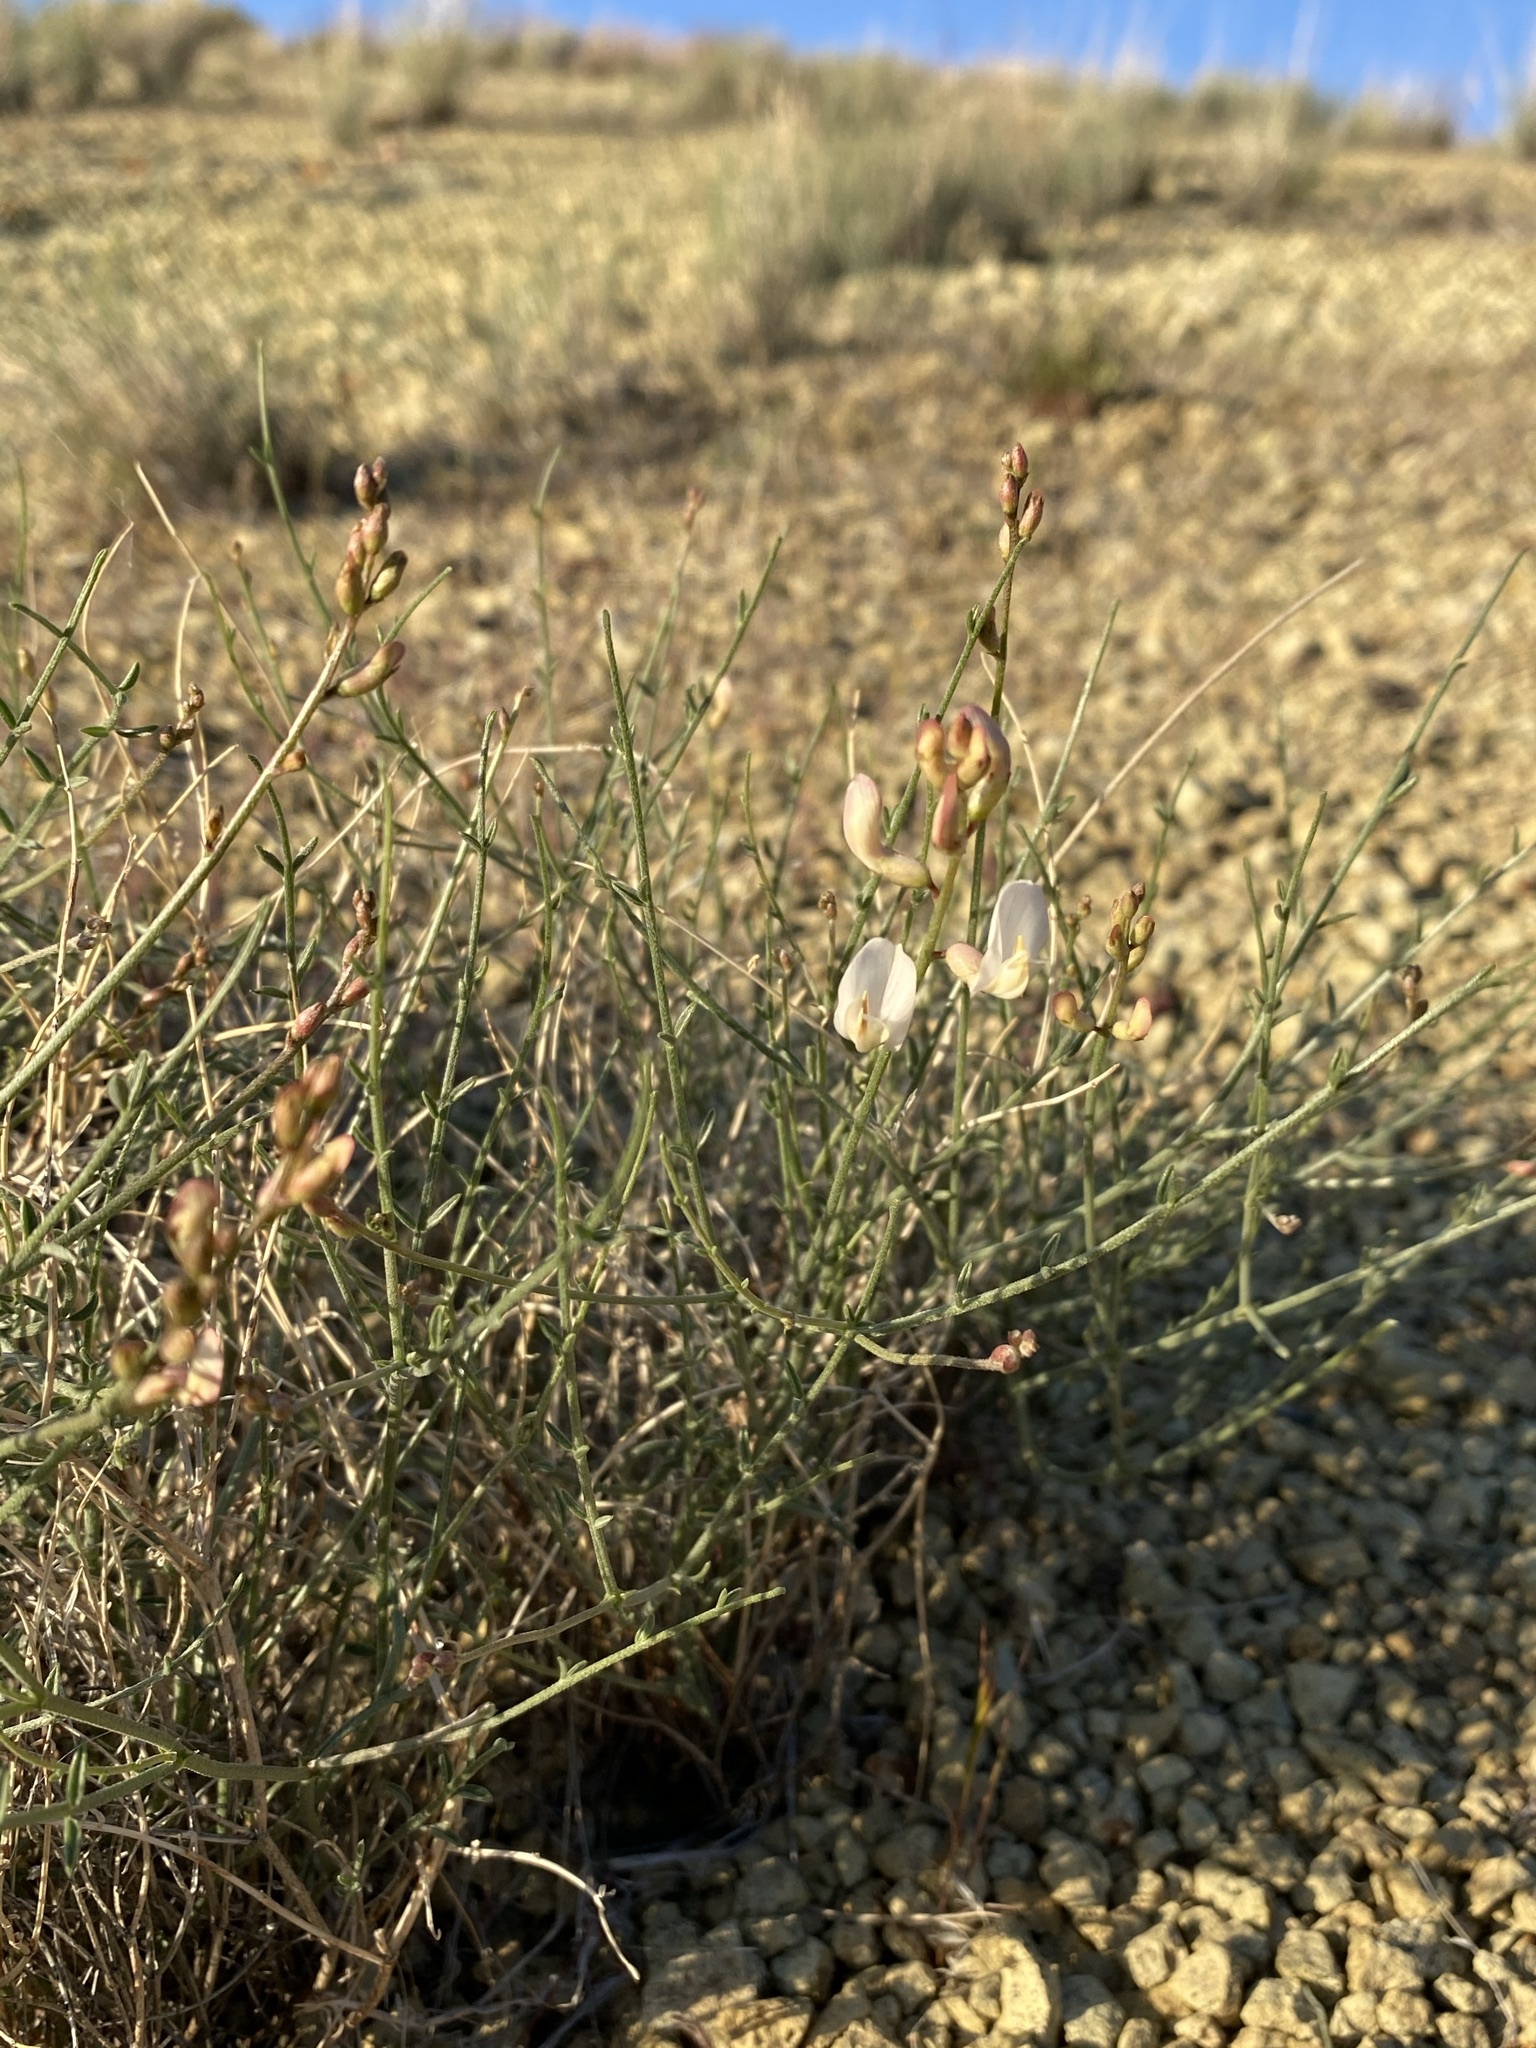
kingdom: Plantae
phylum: Tracheophyta
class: Magnoliopsida
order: Fabales
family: Fabaceae
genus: Astragalus
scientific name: Astragalus sterilis
